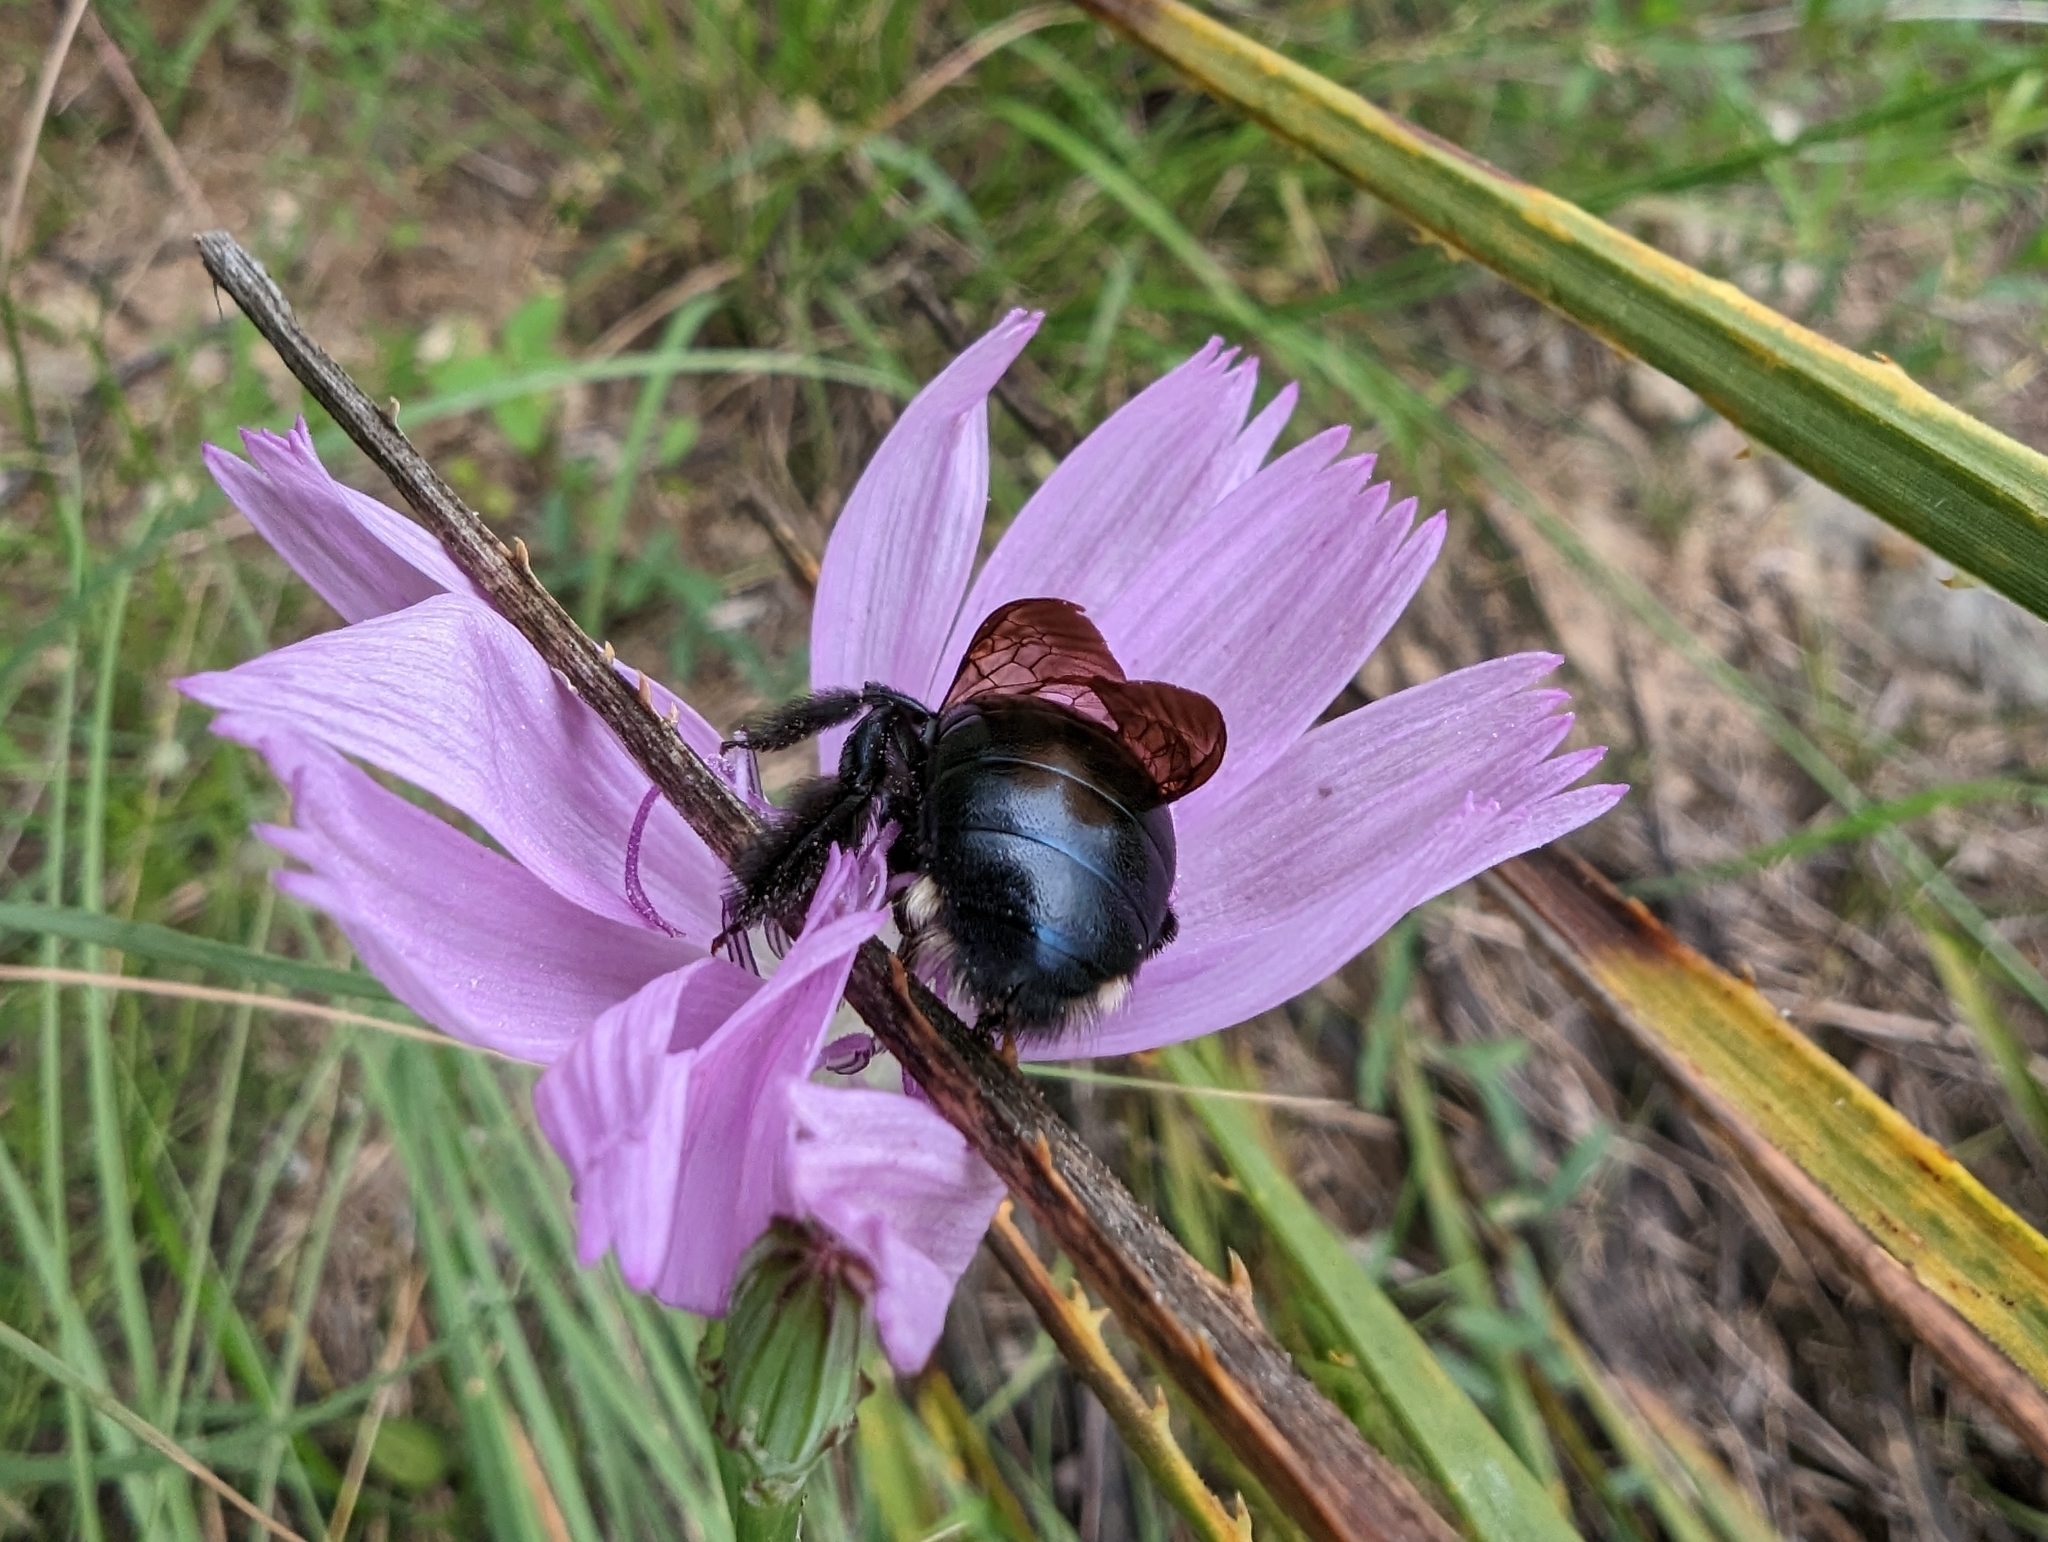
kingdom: Animalia
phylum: Arthropoda
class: Insecta
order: Hymenoptera
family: Apidae
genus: Xylocopa
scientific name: Xylocopa micans
